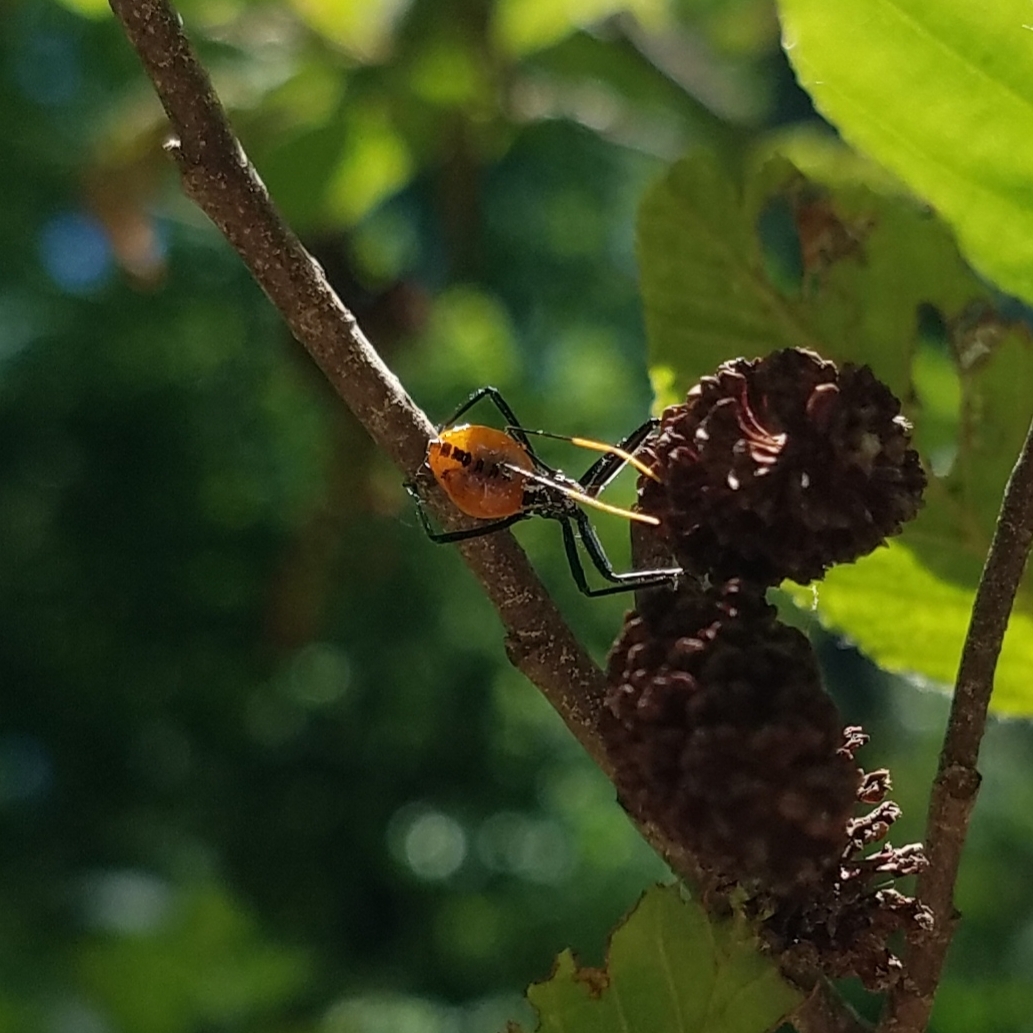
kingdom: Animalia
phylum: Arthropoda
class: Insecta
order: Hemiptera
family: Reduviidae
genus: Arilus
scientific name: Arilus cristatus
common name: North american wheel bug
